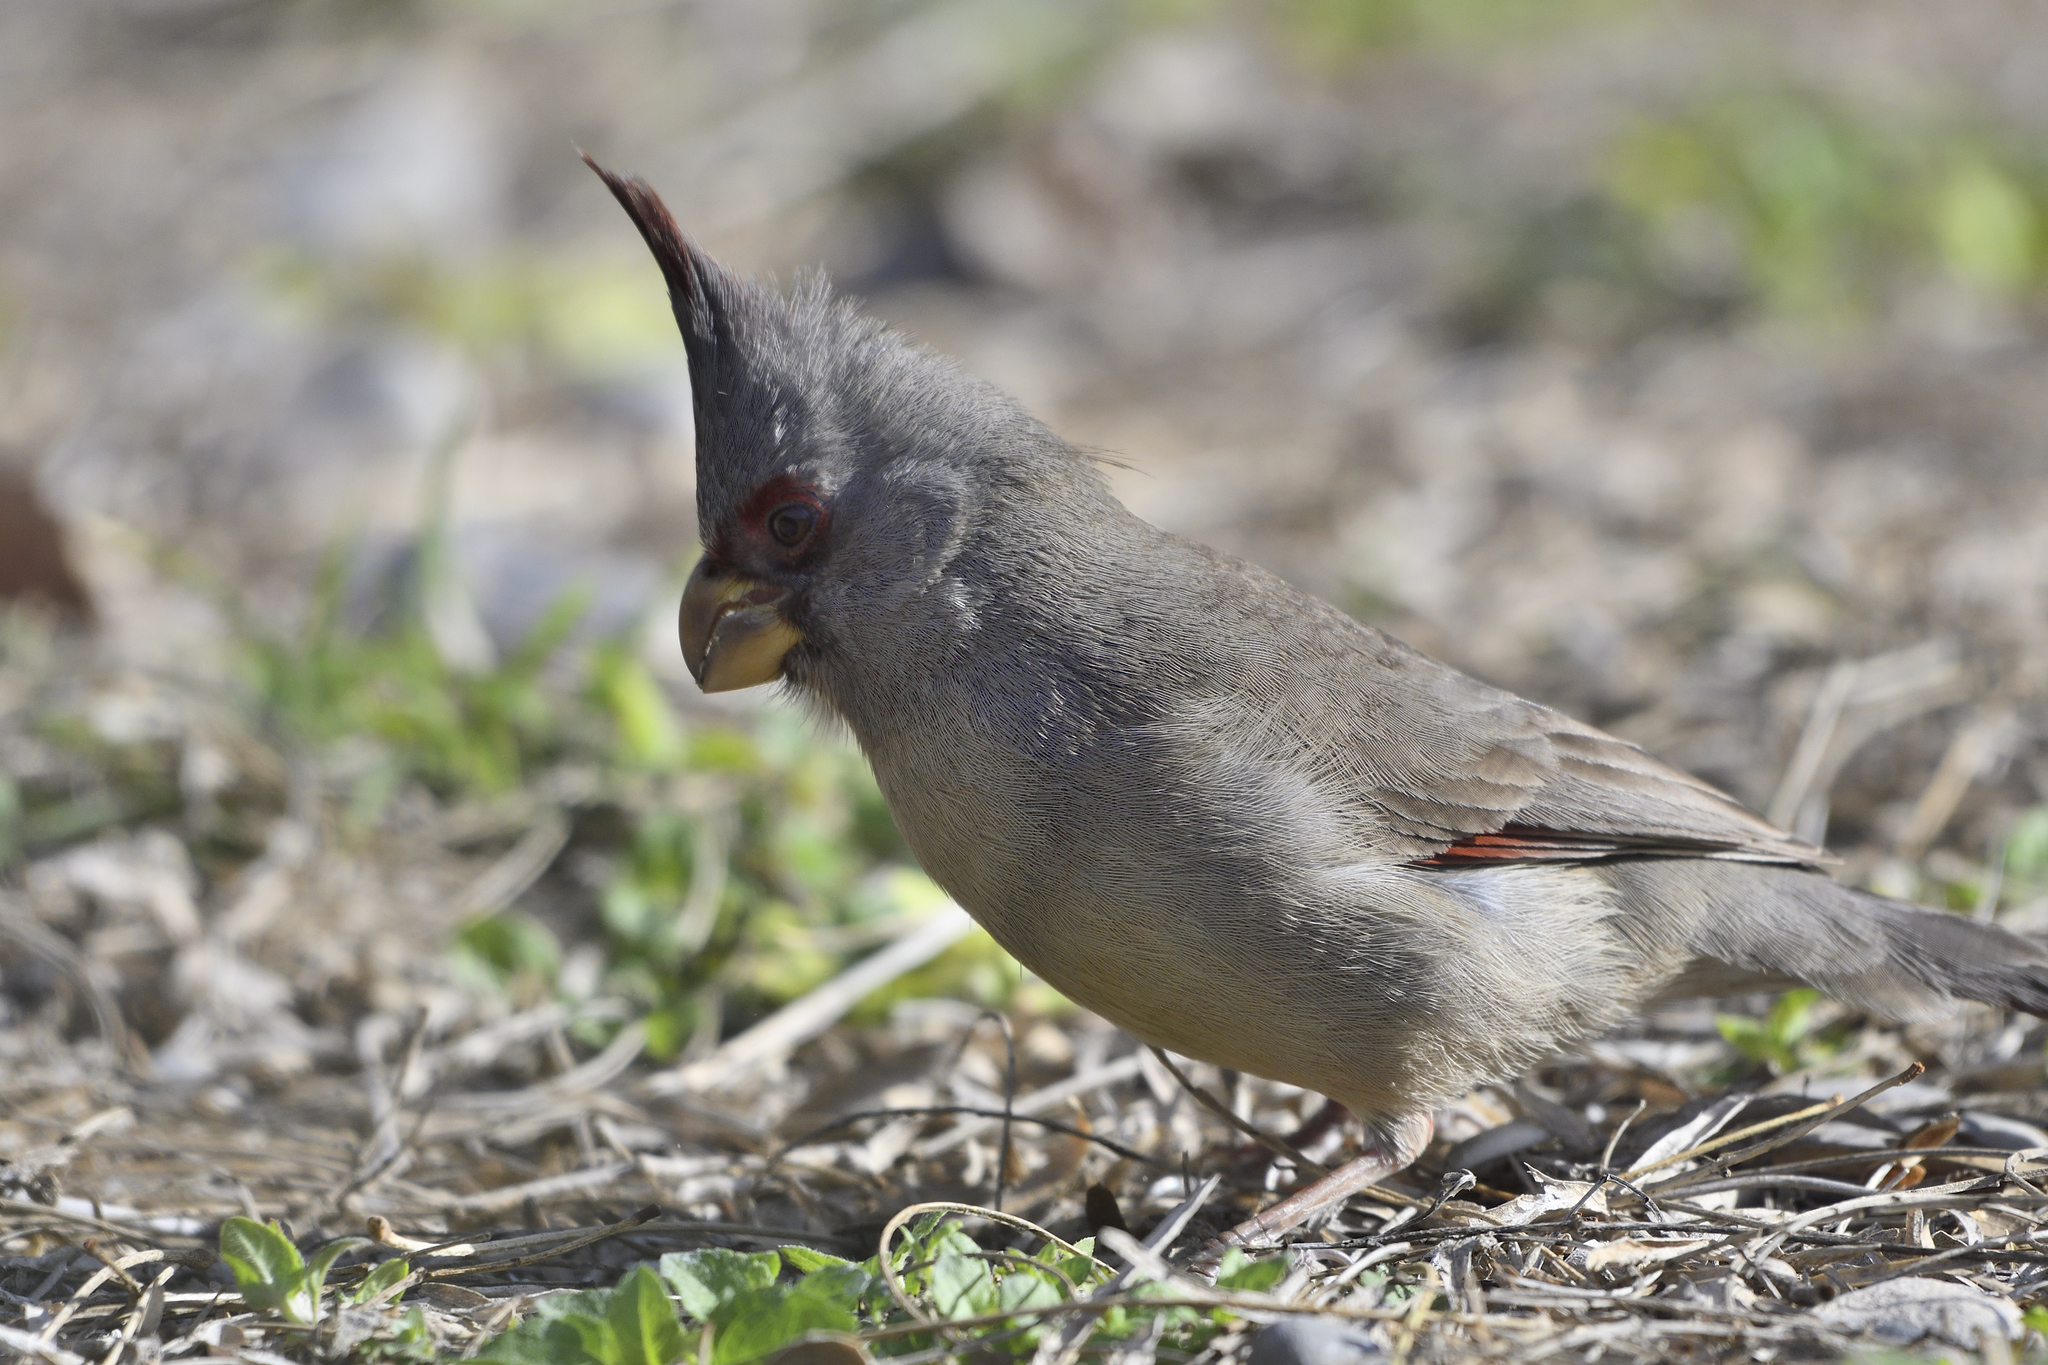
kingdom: Animalia
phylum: Chordata
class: Aves
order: Passeriformes
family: Cardinalidae
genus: Cardinalis
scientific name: Cardinalis sinuatus
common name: Pyrrhuloxia
